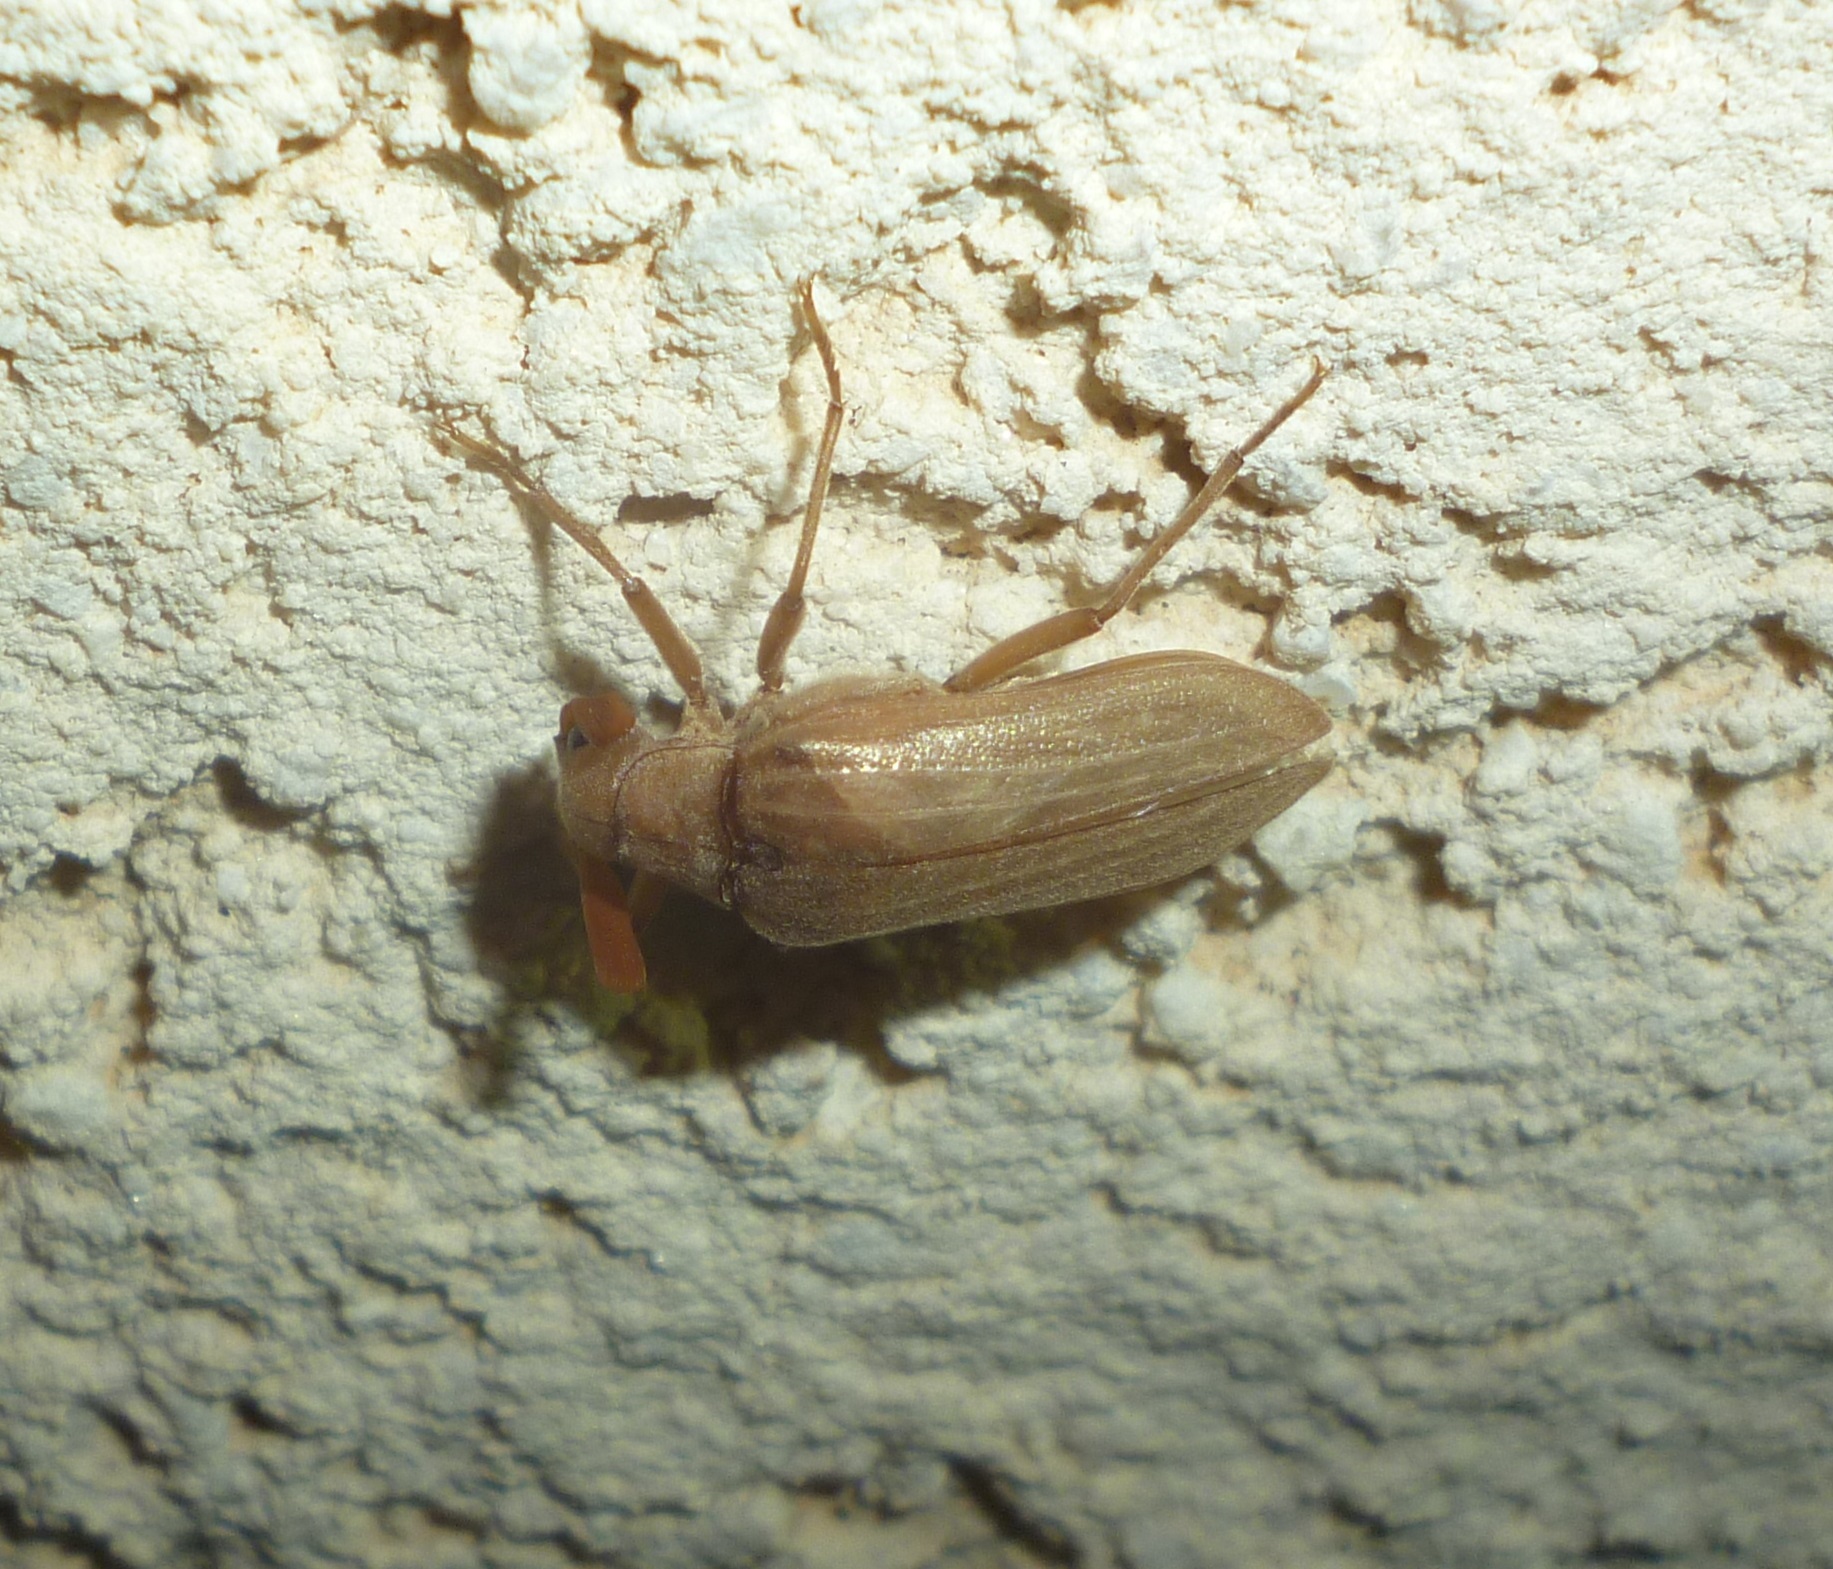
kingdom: Animalia
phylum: Arthropoda
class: Insecta
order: Coleoptera
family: Rhipiceridae
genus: Arrhaphipterus
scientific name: Arrhaphipterus
